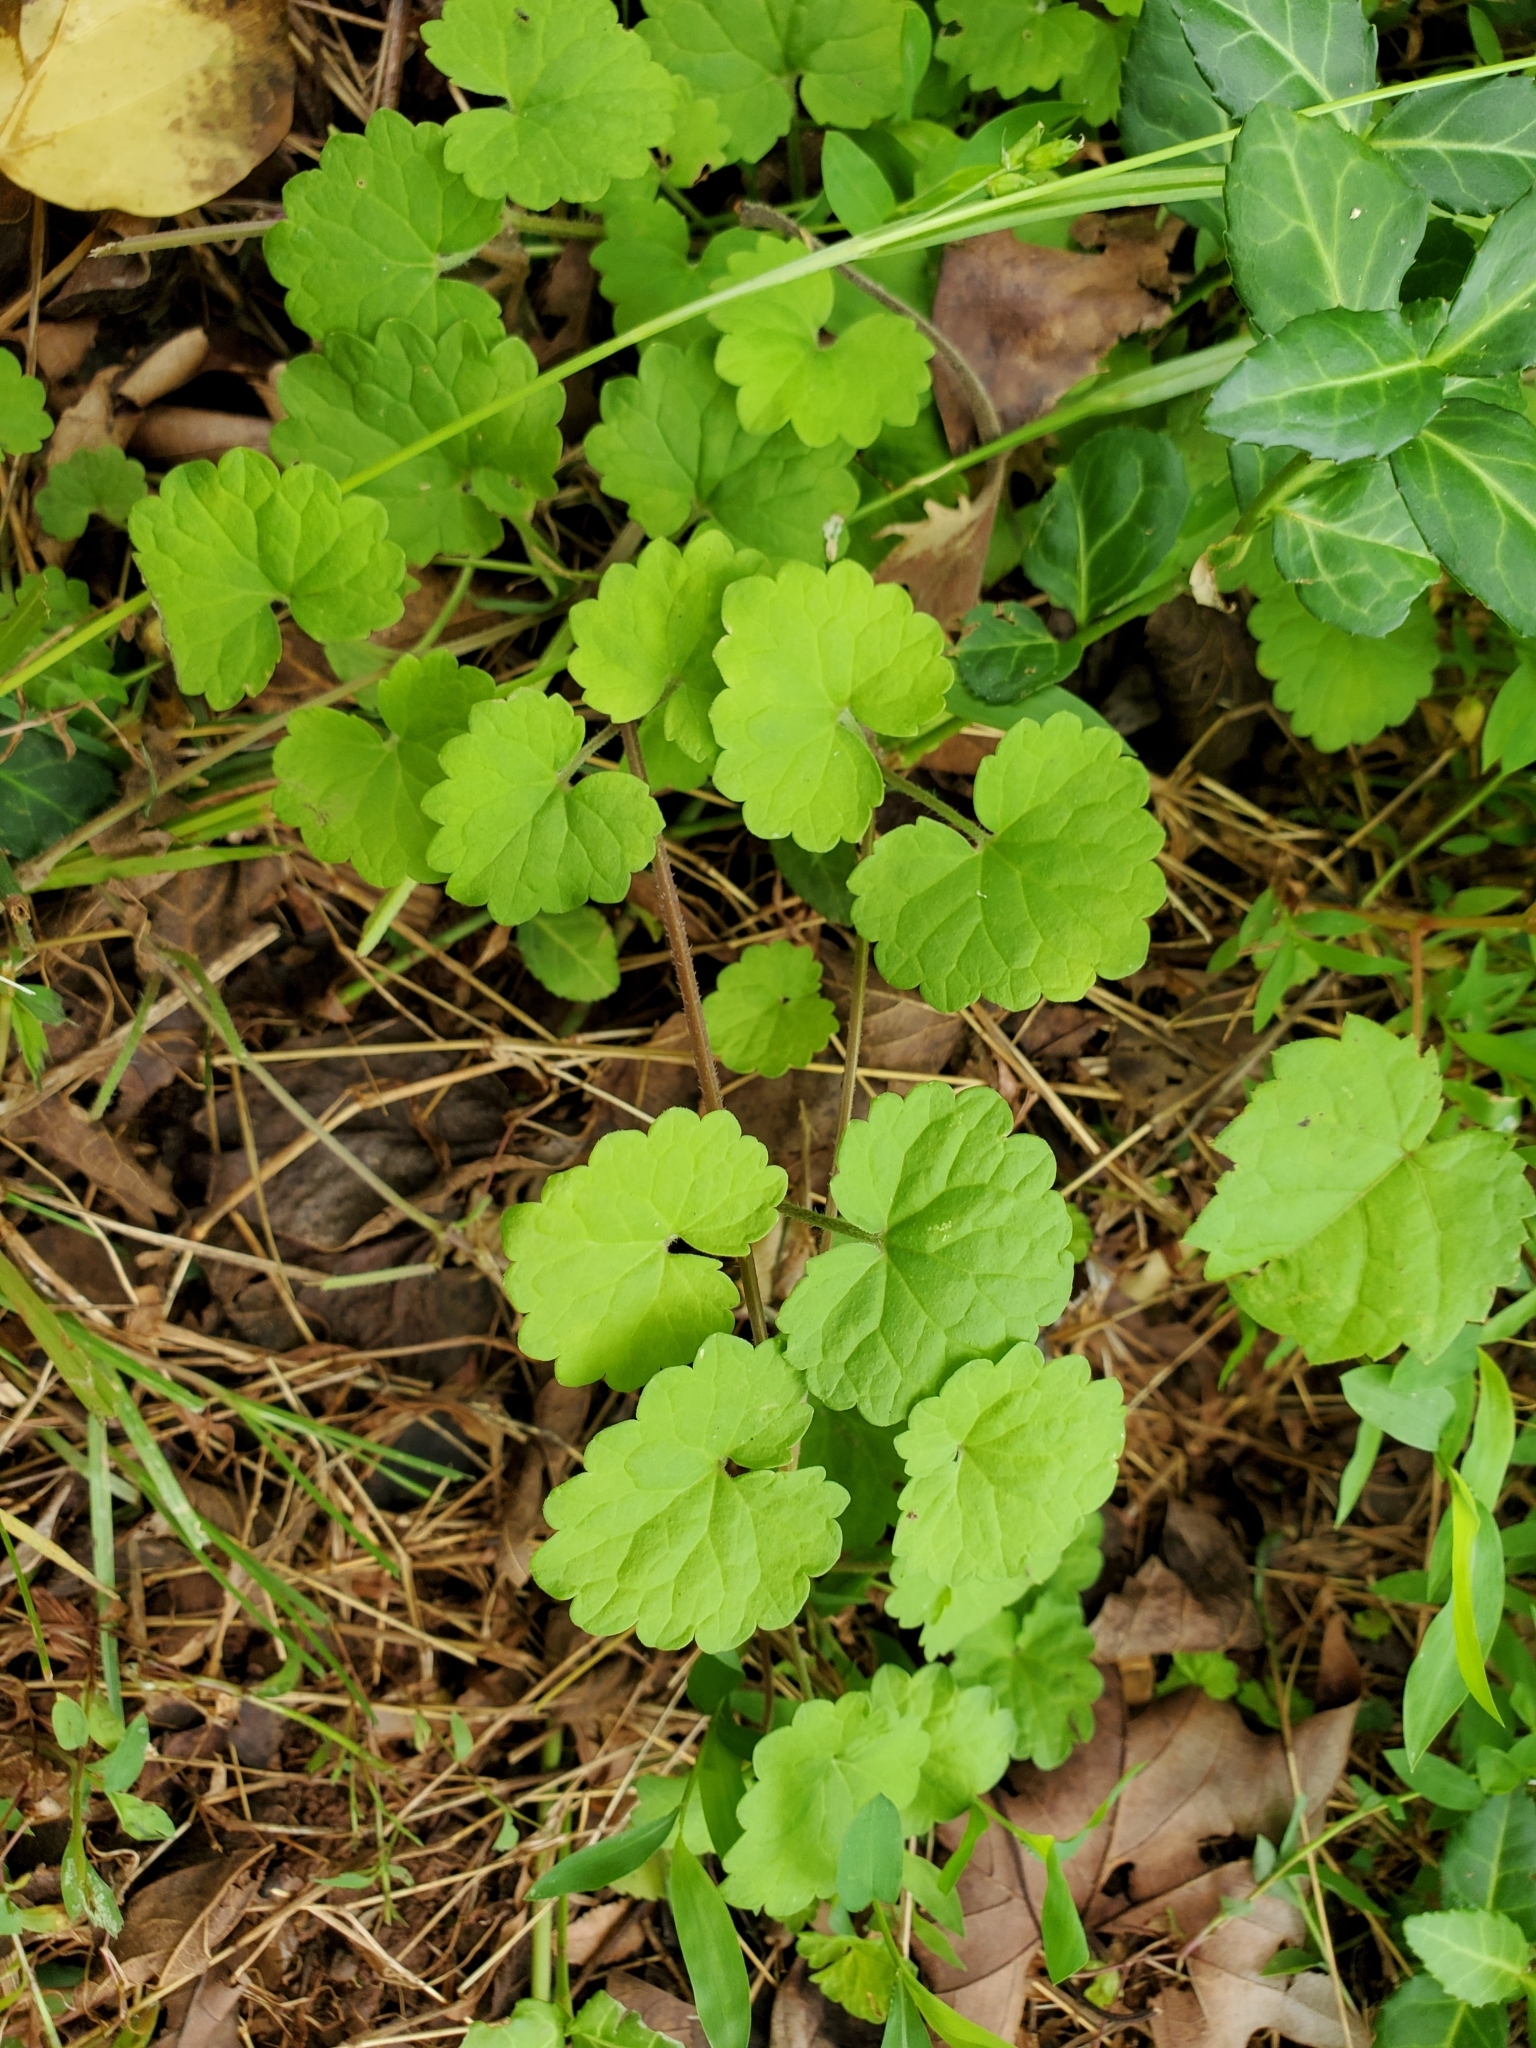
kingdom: Plantae
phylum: Tracheophyta
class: Magnoliopsida
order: Lamiales
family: Lamiaceae
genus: Glechoma
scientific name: Glechoma hederacea
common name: Ground ivy
